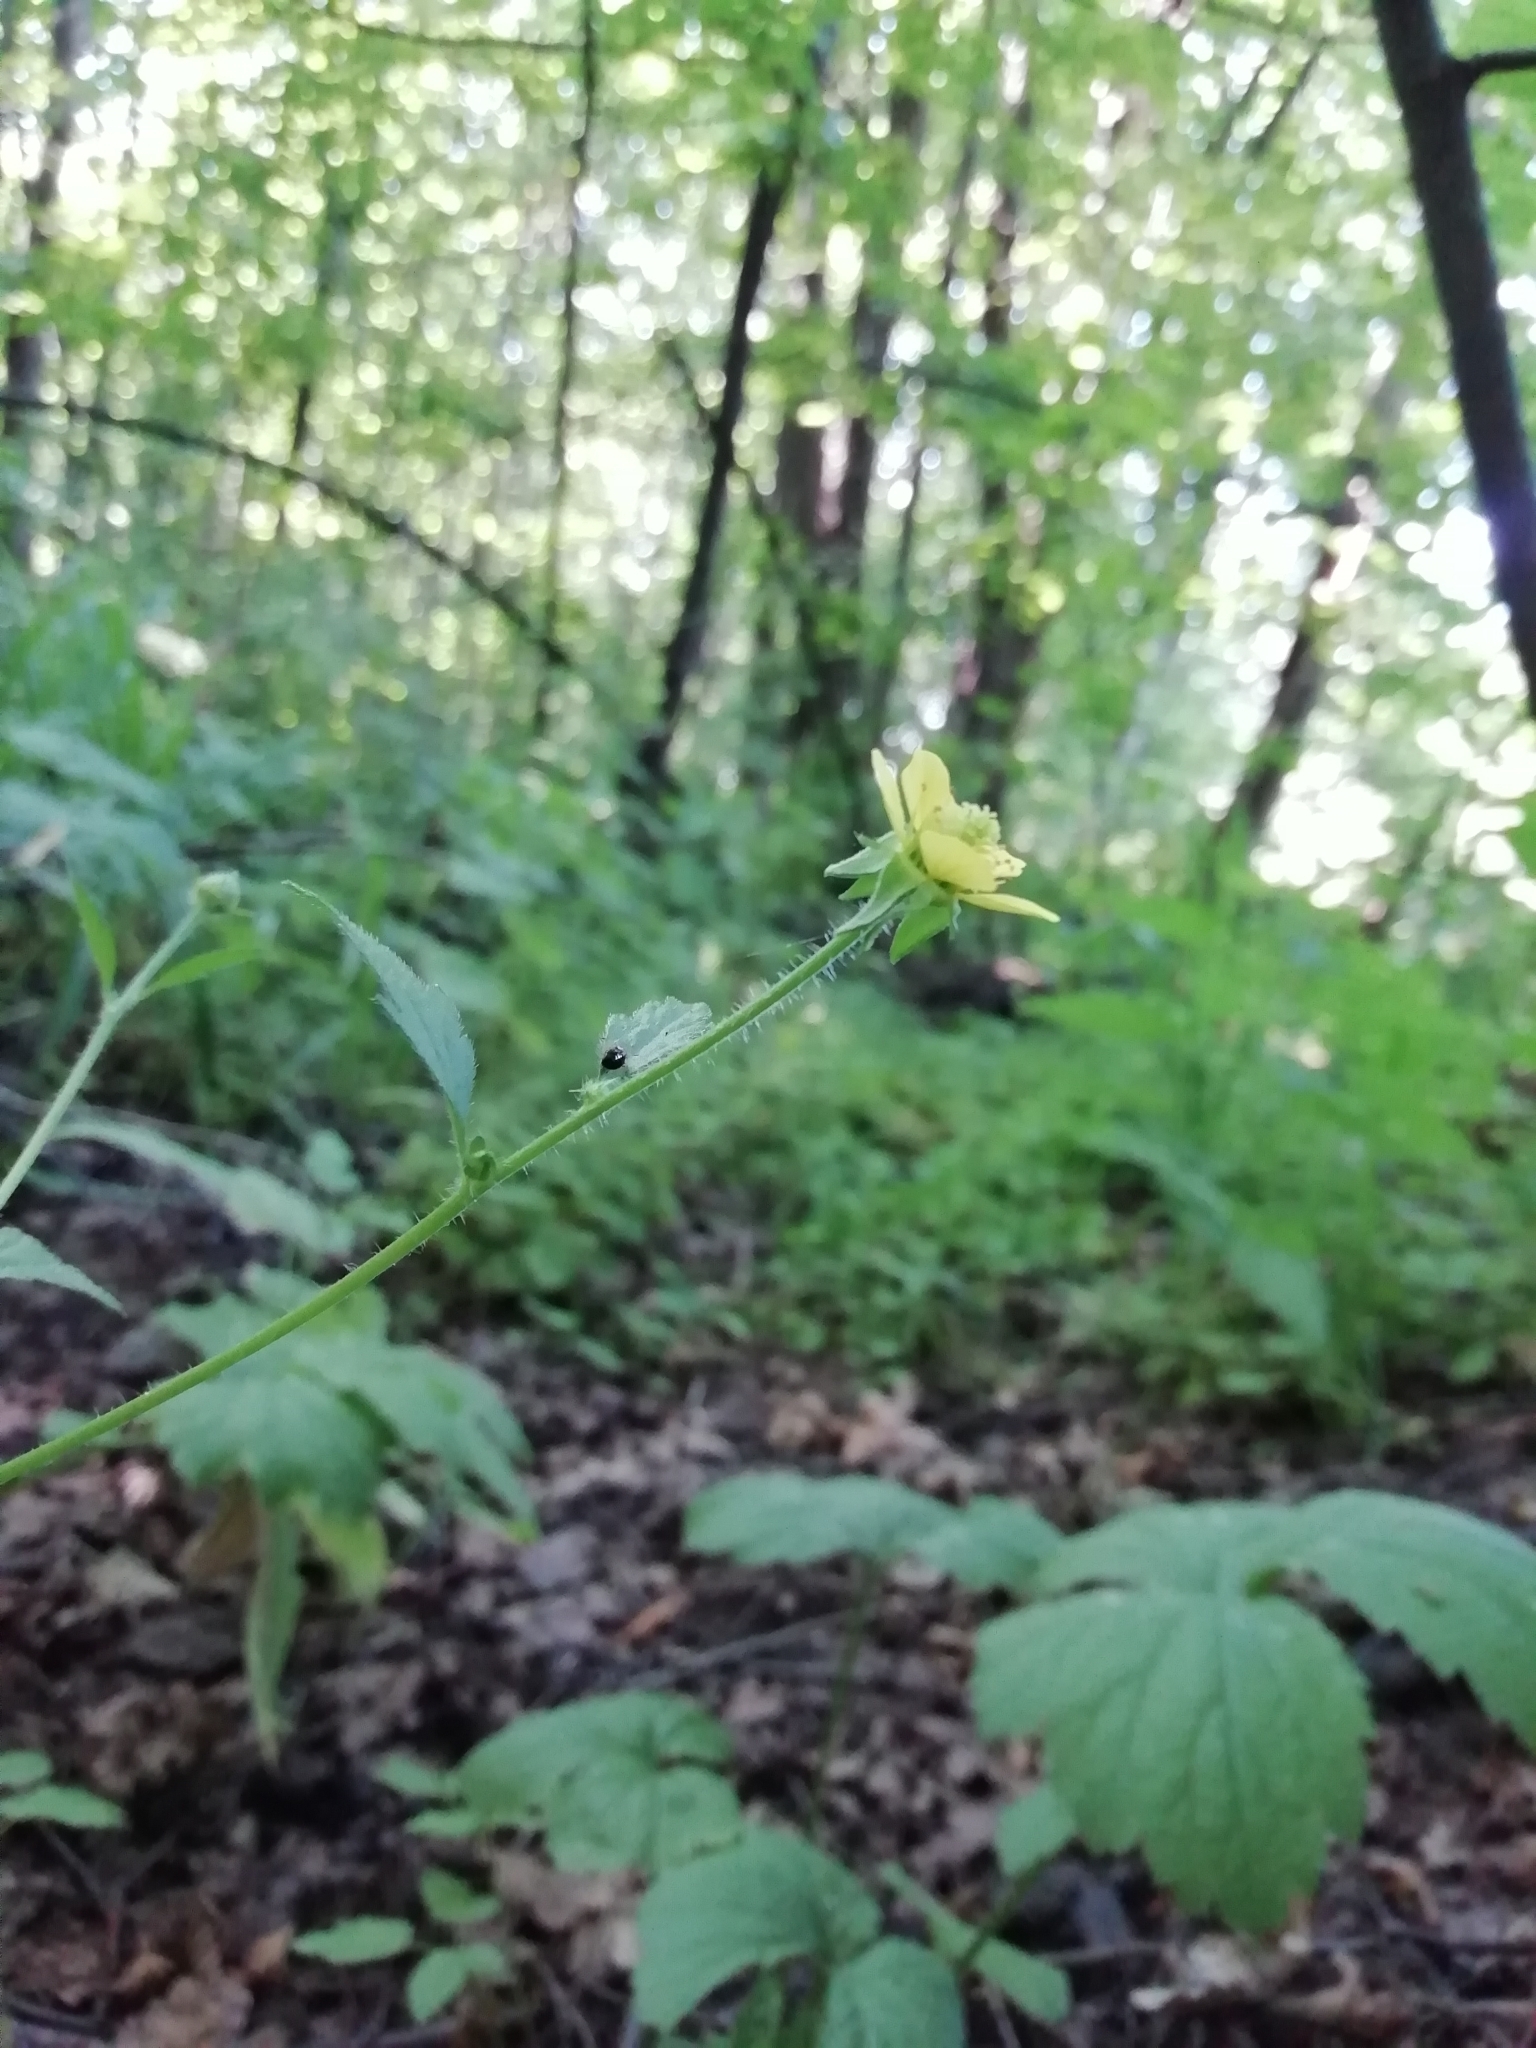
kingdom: Plantae
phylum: Tracheophyta
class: Magnoliopsida
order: Rosales
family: Rosaceae
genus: Geum
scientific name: Geum urbanum
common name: Wood avens
